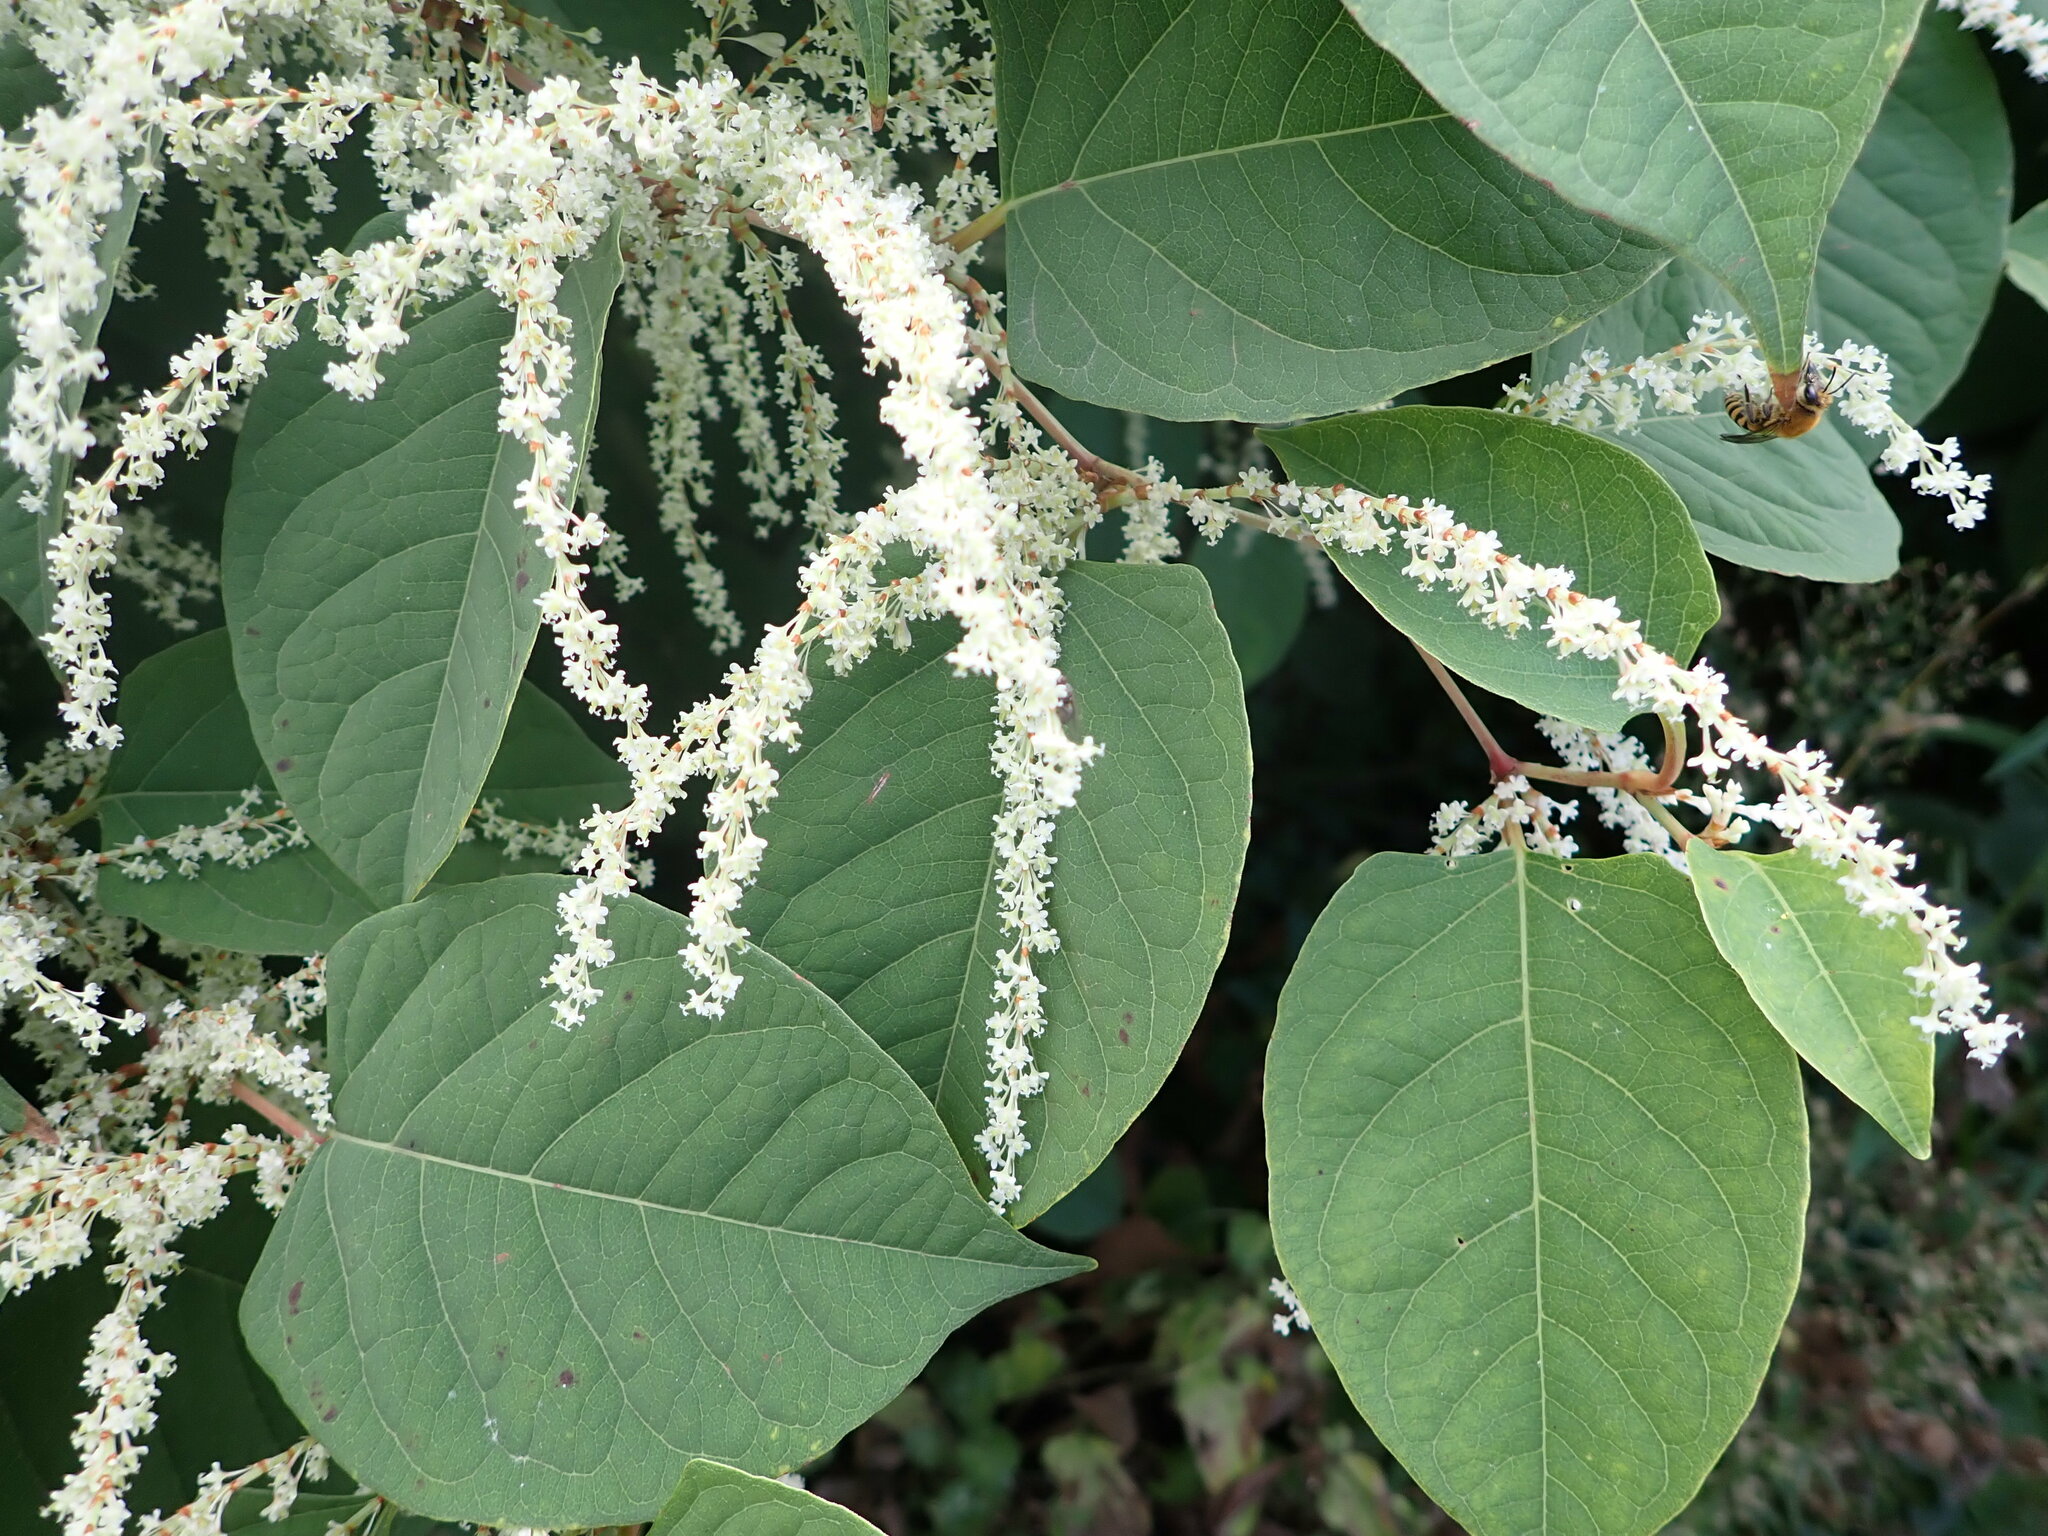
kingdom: Plantae
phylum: Tracheophyta
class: Magnoliopsida
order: Caryophyllales
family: Polygonaceae
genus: Reynoutria
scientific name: Reynoutria japonica
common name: Japanese knotweed
